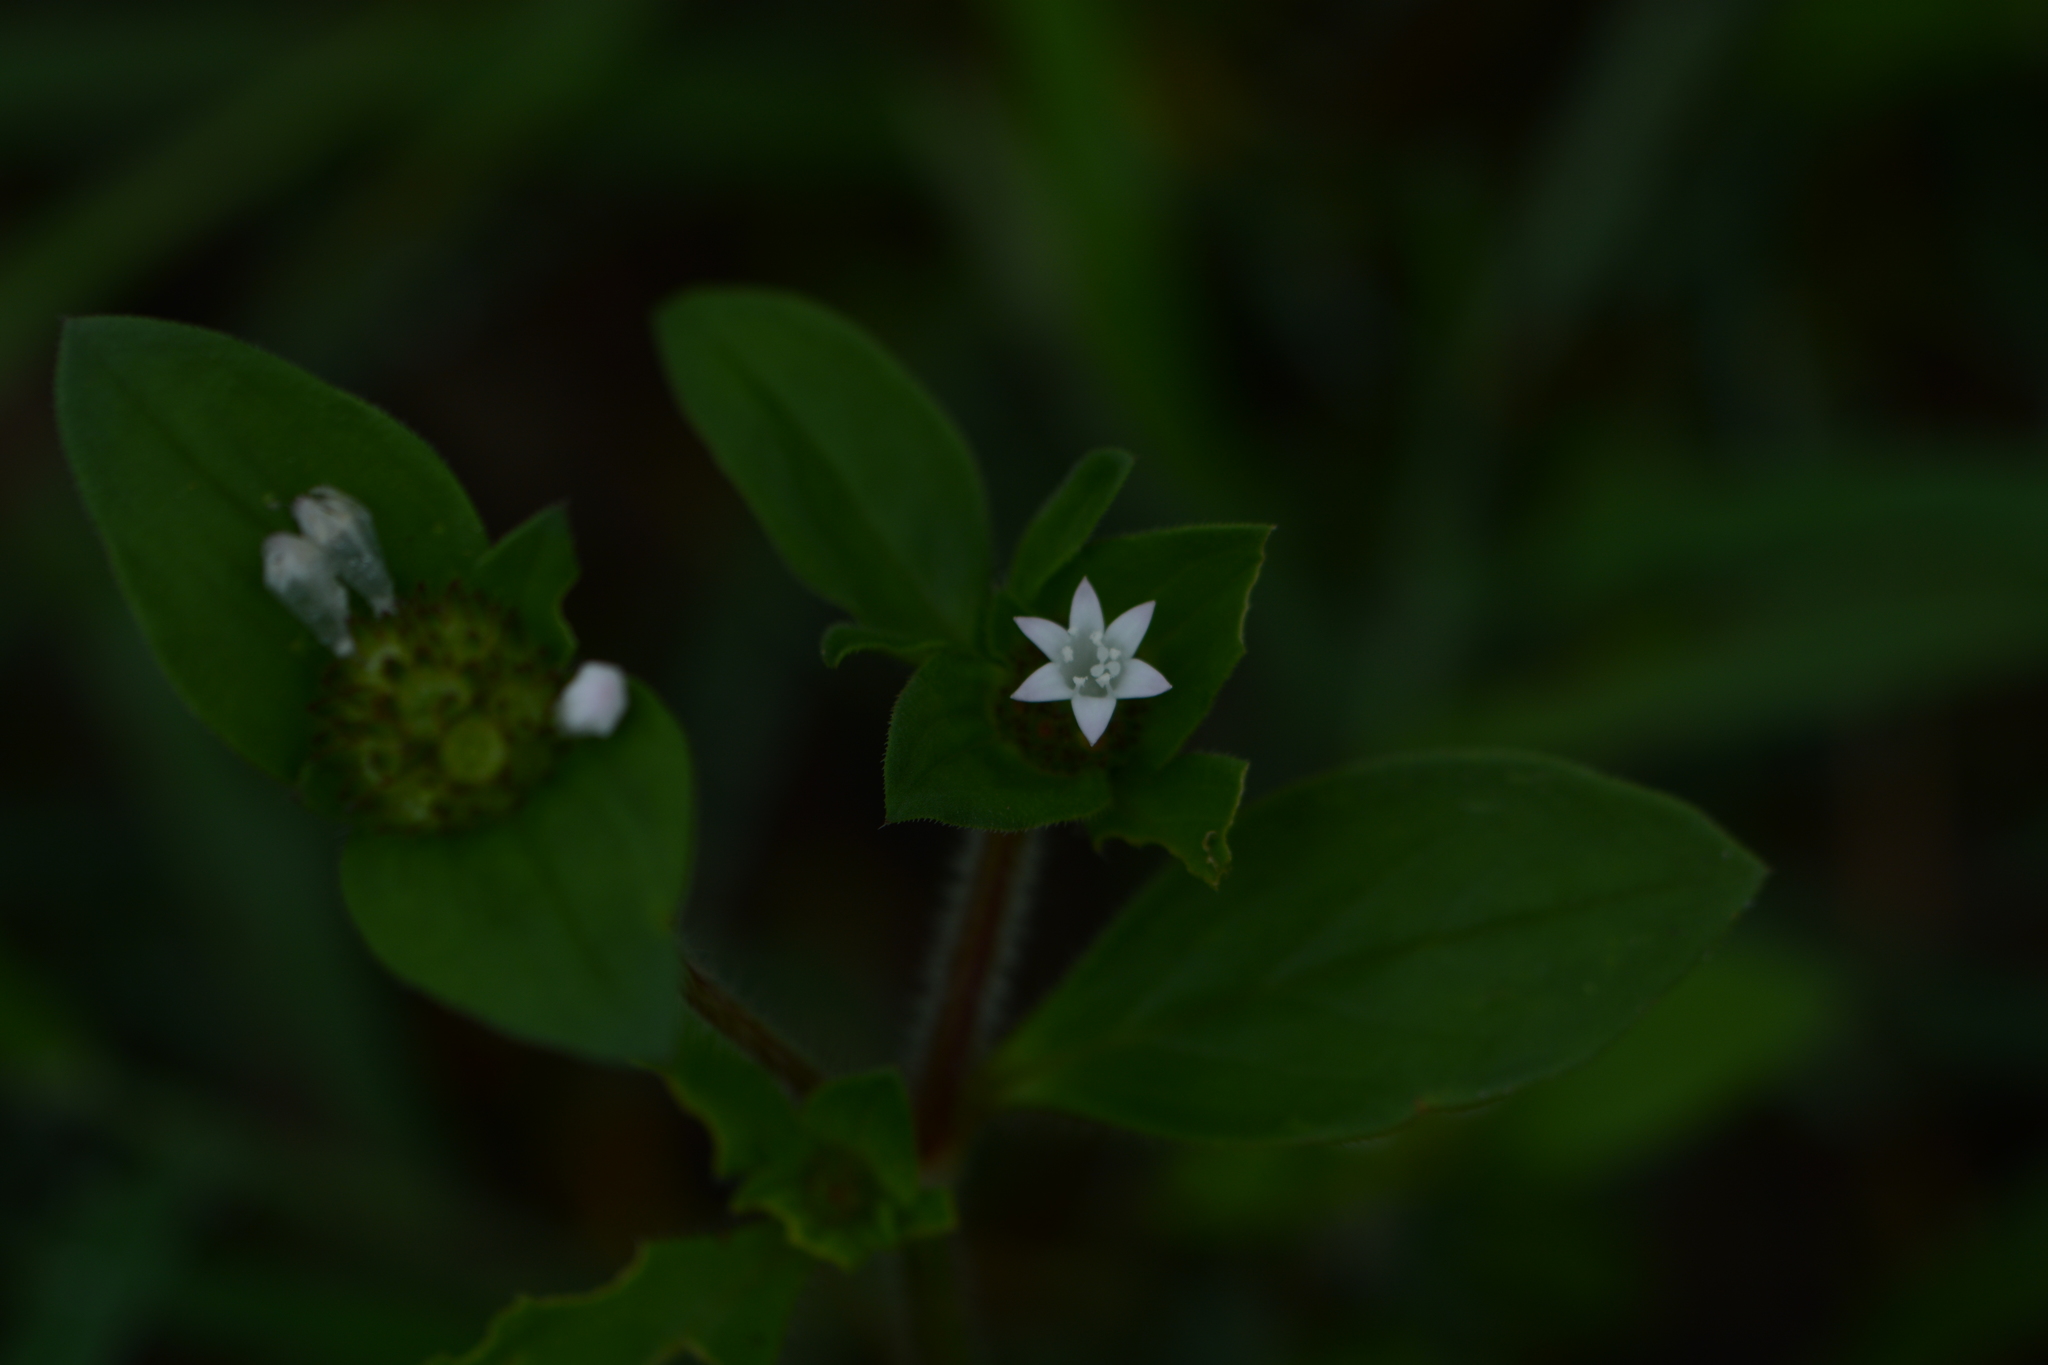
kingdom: Plantae
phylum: Tracheophyta
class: Magnoliopsida
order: Gentianales
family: Rubiaceae
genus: Richardia
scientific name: Richardia scabra
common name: Rough mexican clover
